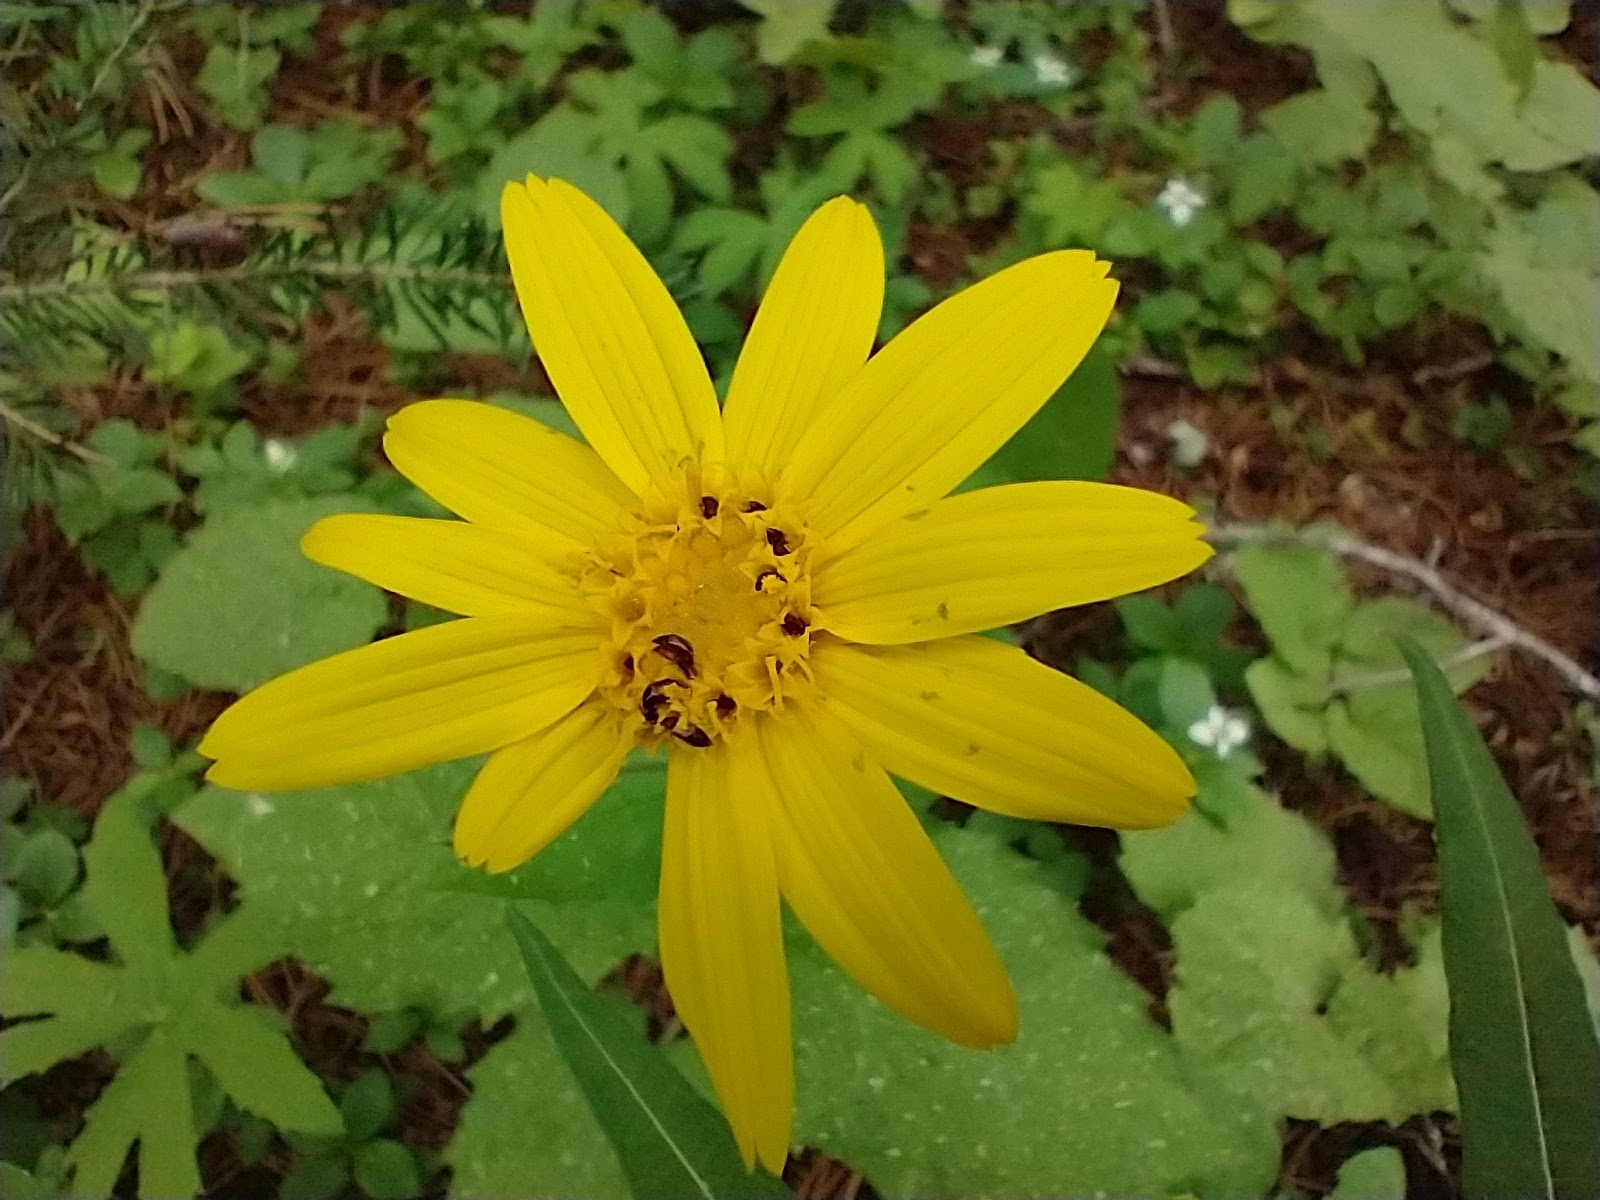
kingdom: Plantae
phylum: Tracheophyta
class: Magnoliopsida
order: Asterales
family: Asteraceae
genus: Arnica
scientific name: Arnica latifolia
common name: Arnica
